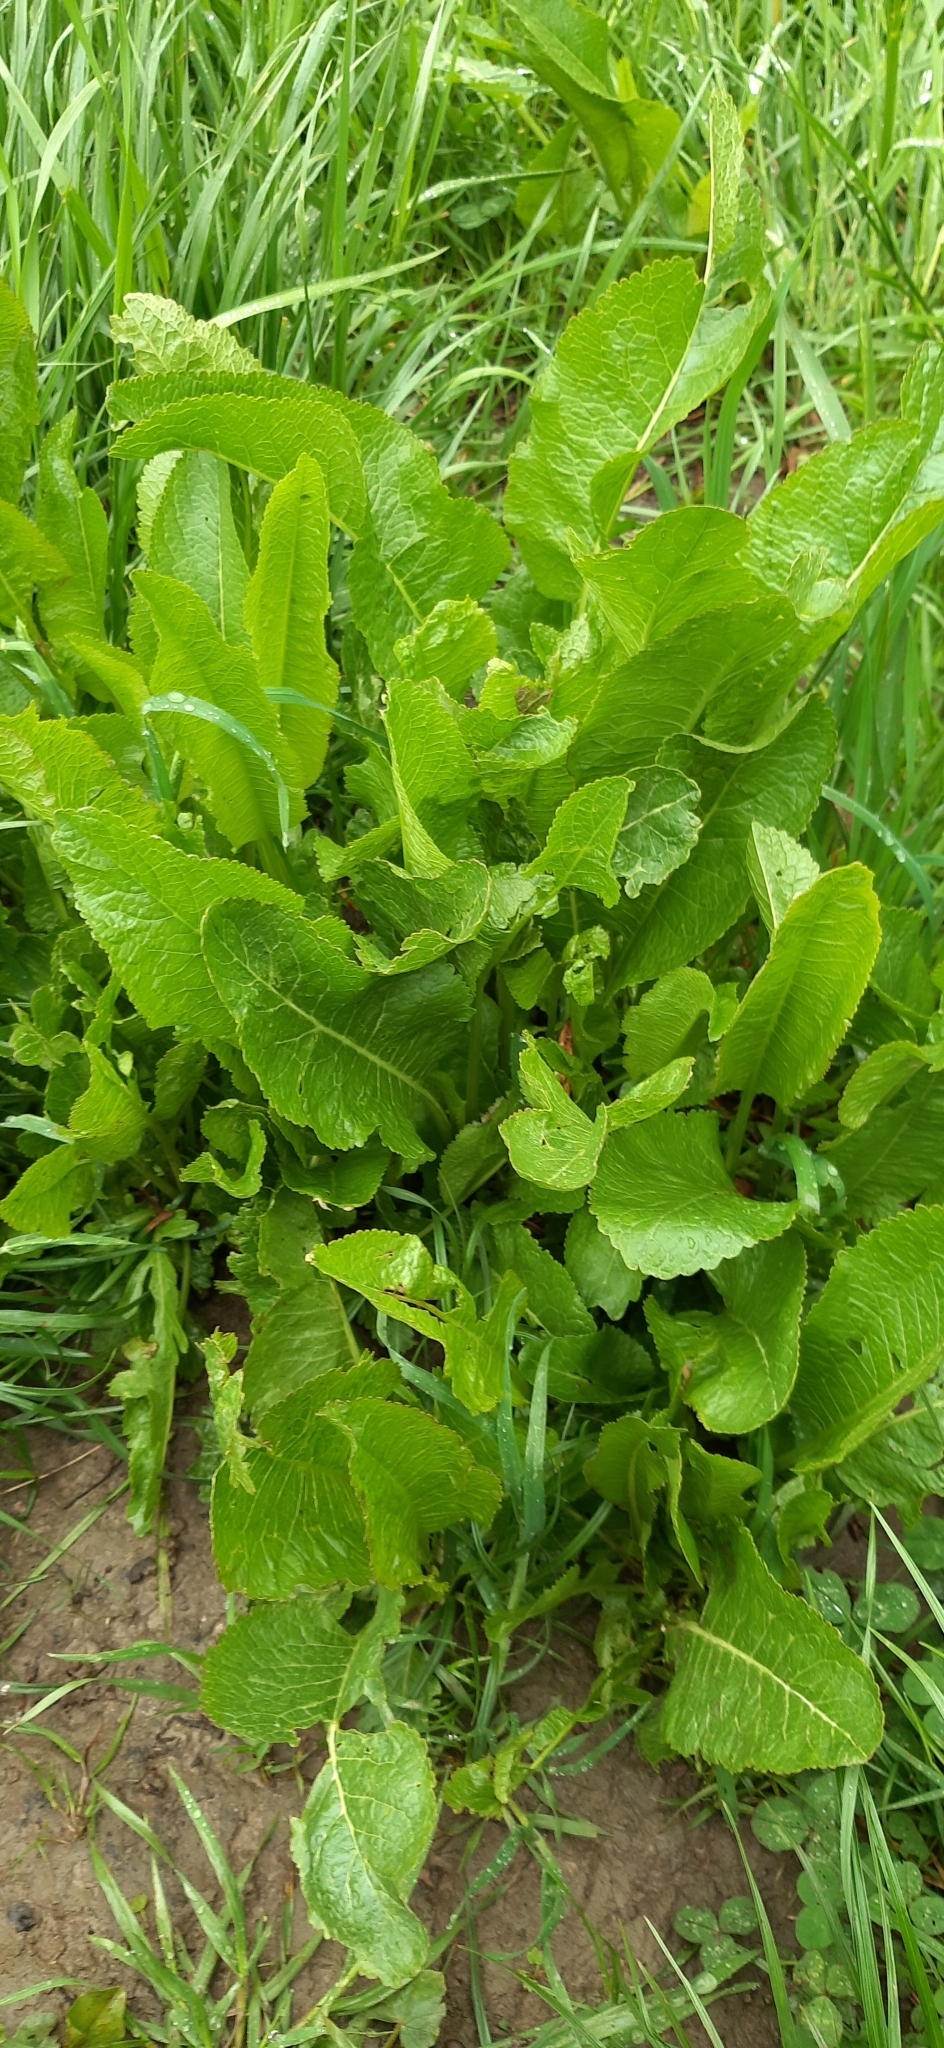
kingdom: Plantae
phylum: Tracheophyta
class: Magnoliopsida
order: Brassicales
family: Brassicaceae
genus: Armoracia
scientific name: Armoracia rusticana
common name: Horseradish
